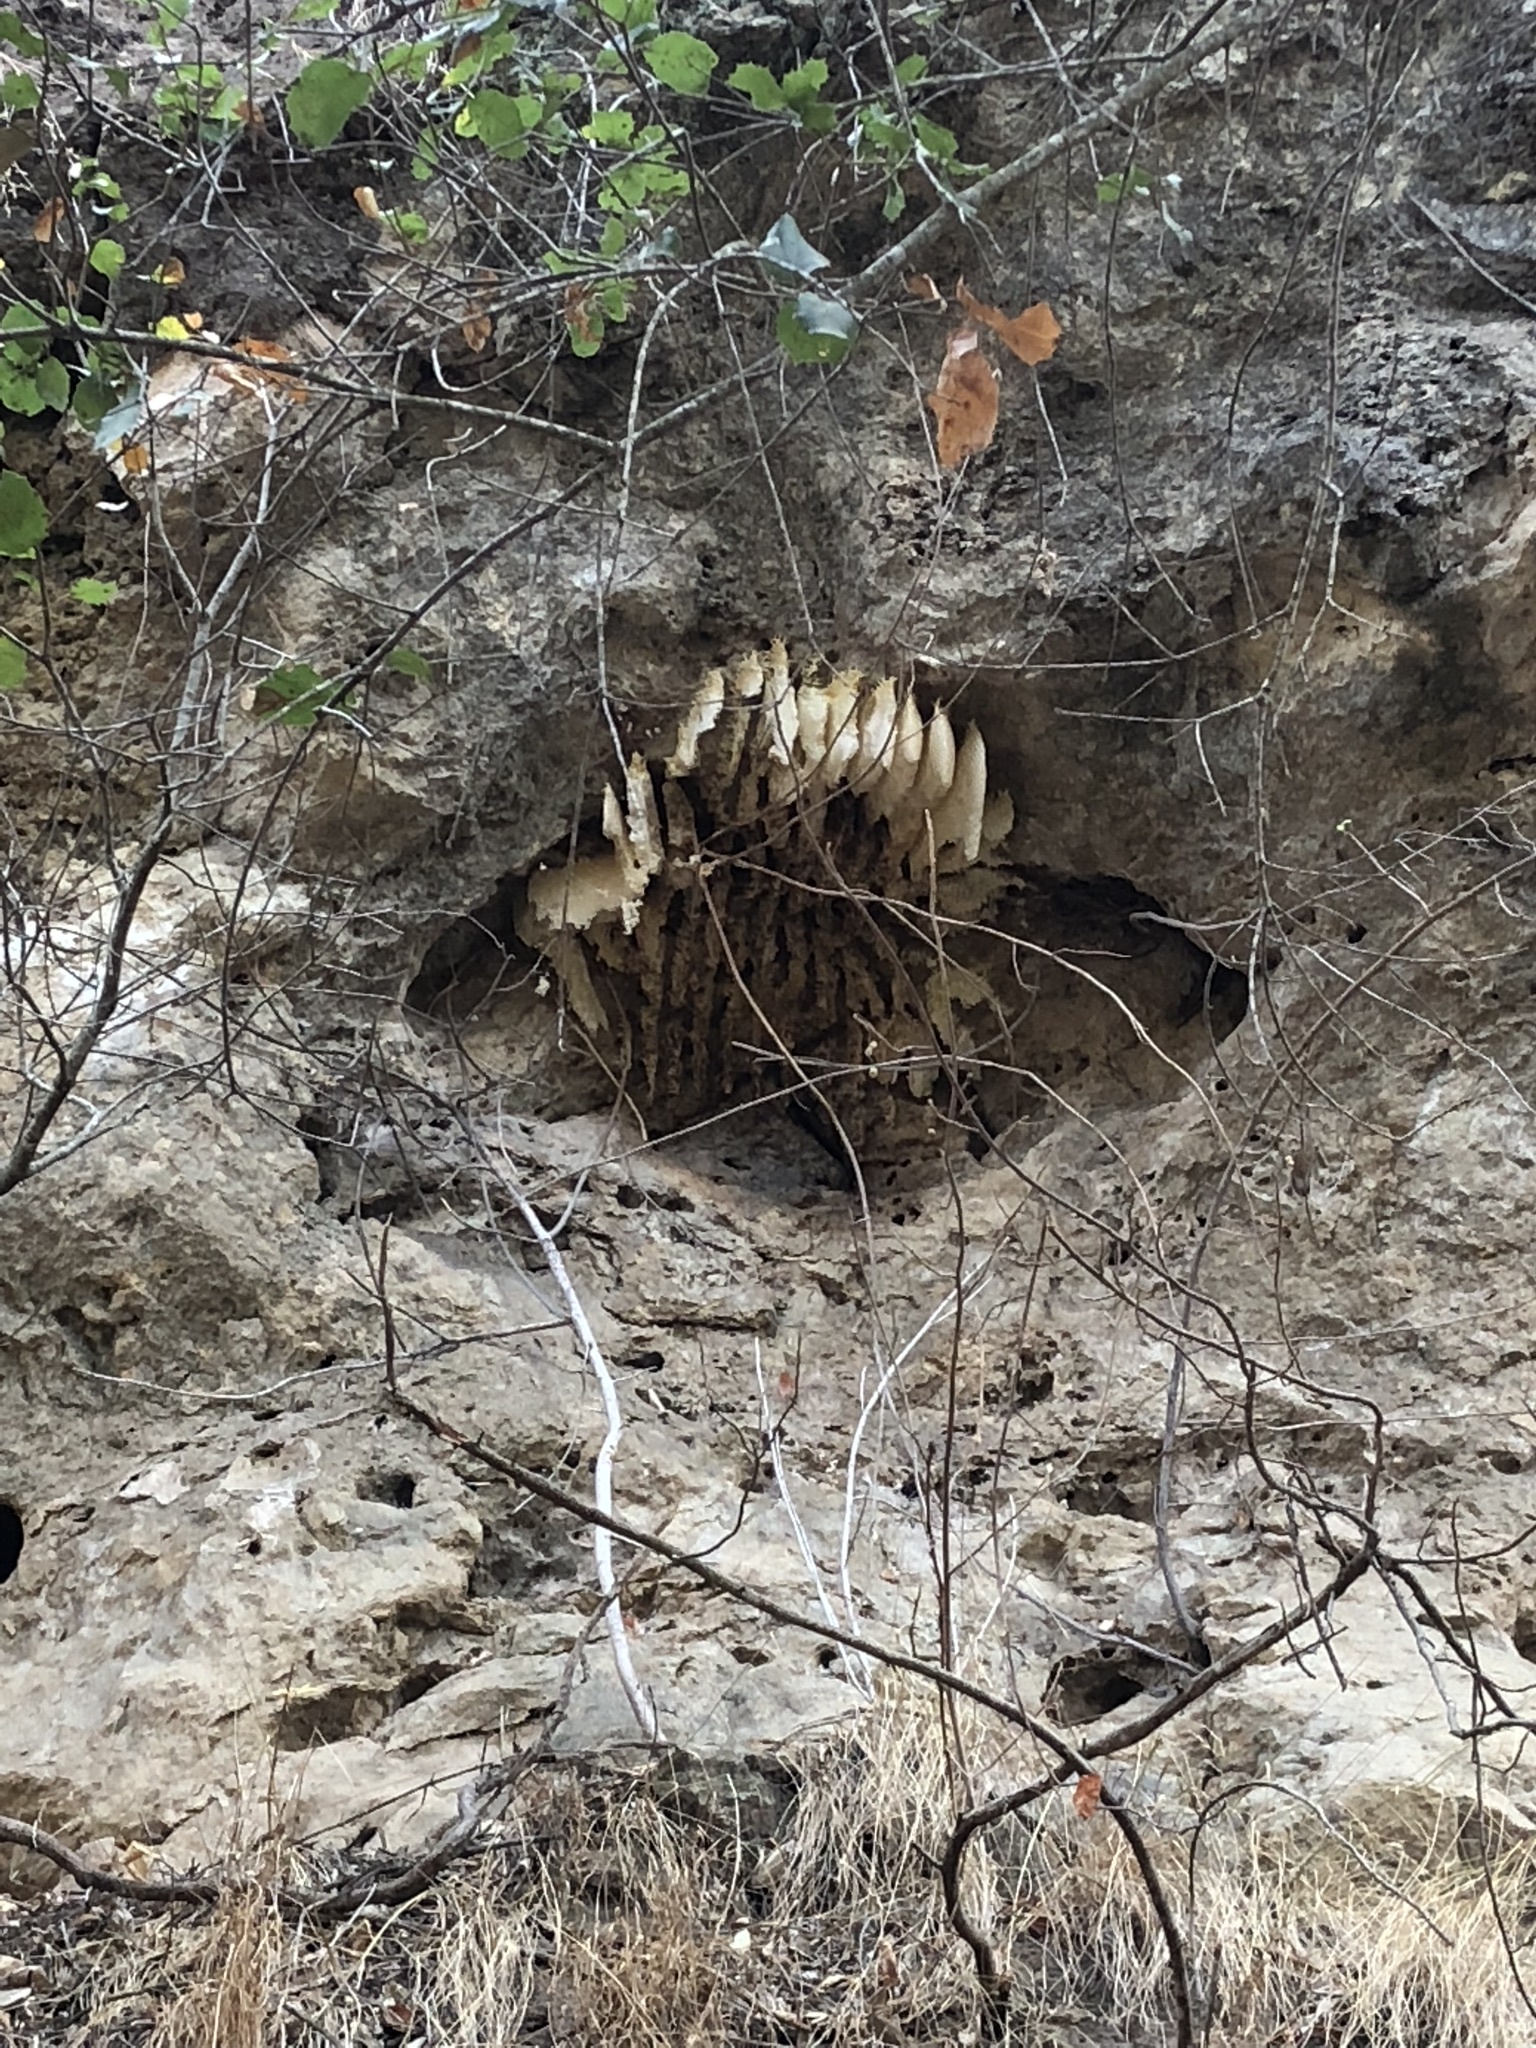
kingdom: Animalia
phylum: Arthropoda
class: Insecta
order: Hymenoptera
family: Apidae
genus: Apis
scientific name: Apis mellifera
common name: Honey bee
